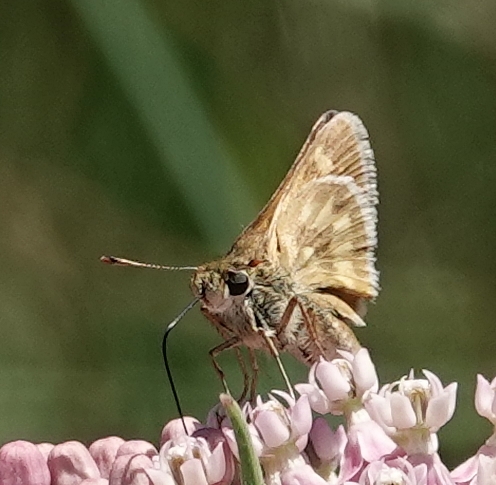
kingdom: Animalia
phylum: Arthropoda
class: Insecta
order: Lepidoptera
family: Hesperiidae
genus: Polites
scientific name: Polites mystic
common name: Long dash
